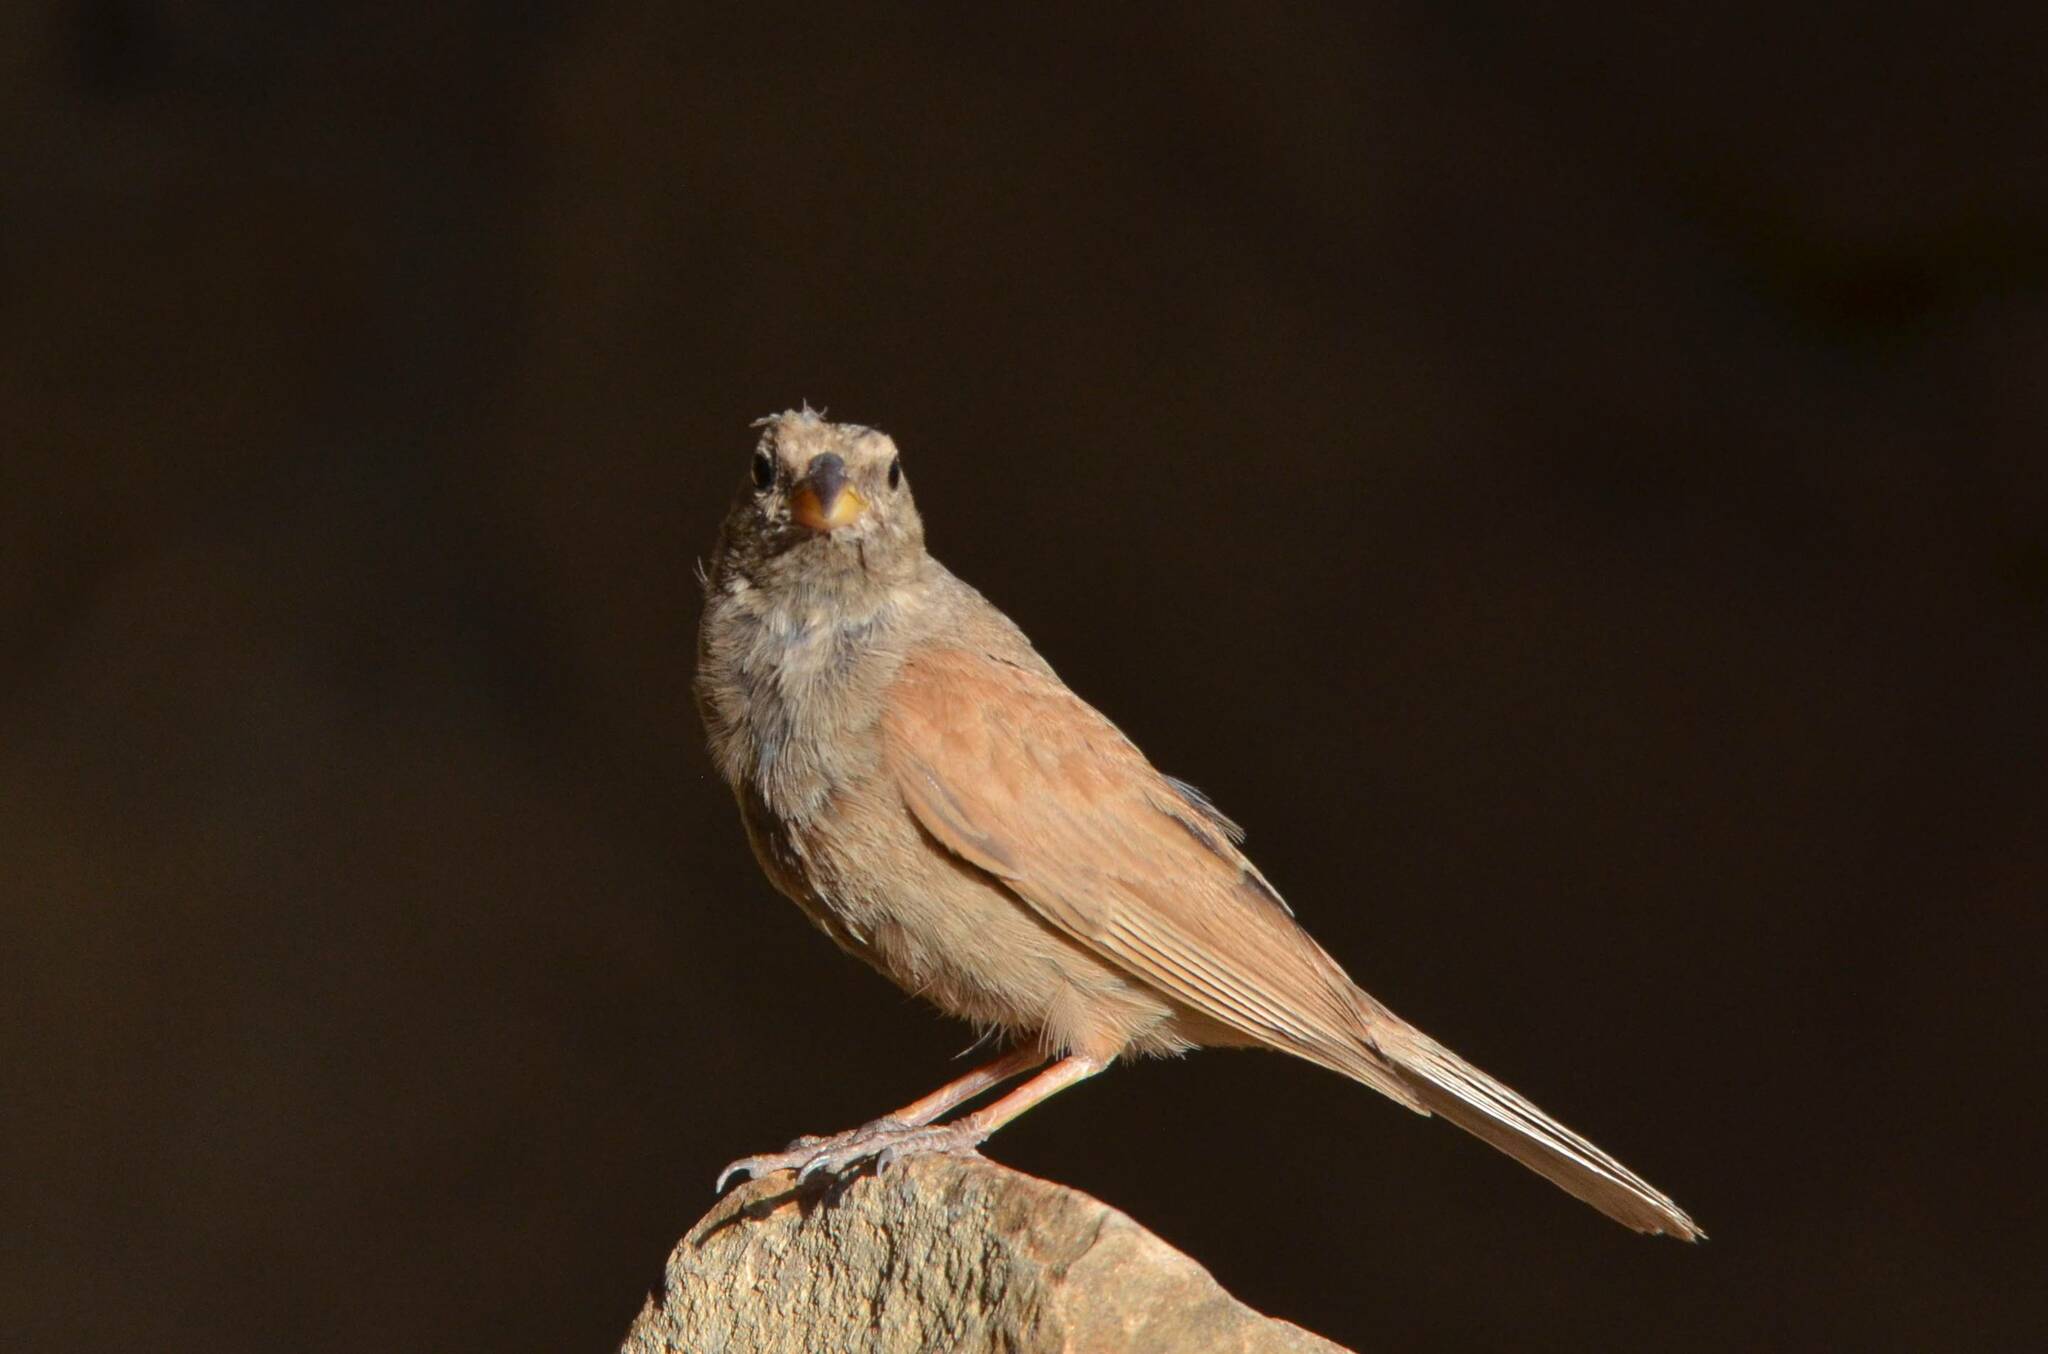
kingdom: Animalia
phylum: Chordata
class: Aves
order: Passeriformes
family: Emberizidae
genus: Emberiza
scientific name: Emberiza sahari
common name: House bunting
